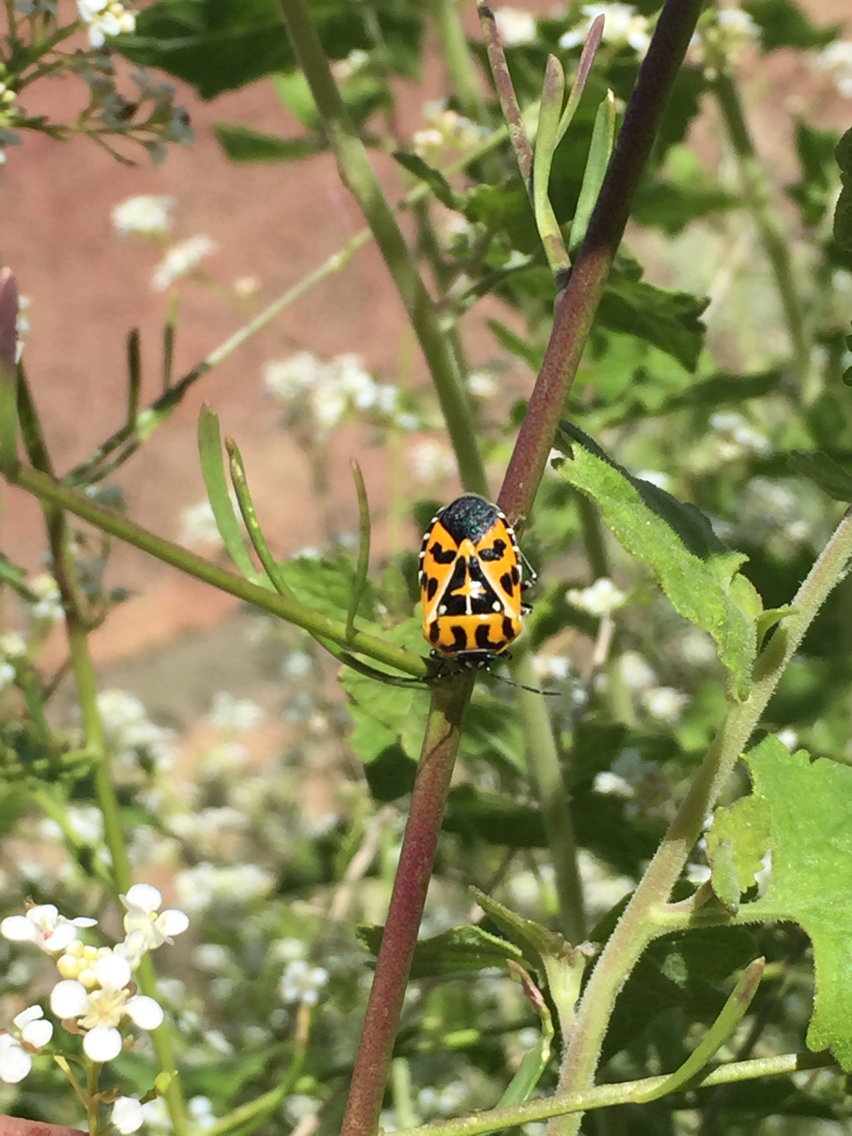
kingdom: Animalia
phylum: Arthropoda
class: Insecta
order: Hemiptera
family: Pentatomidae
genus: Murgantia
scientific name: Murgantia histrionica
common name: Harlequin bug
